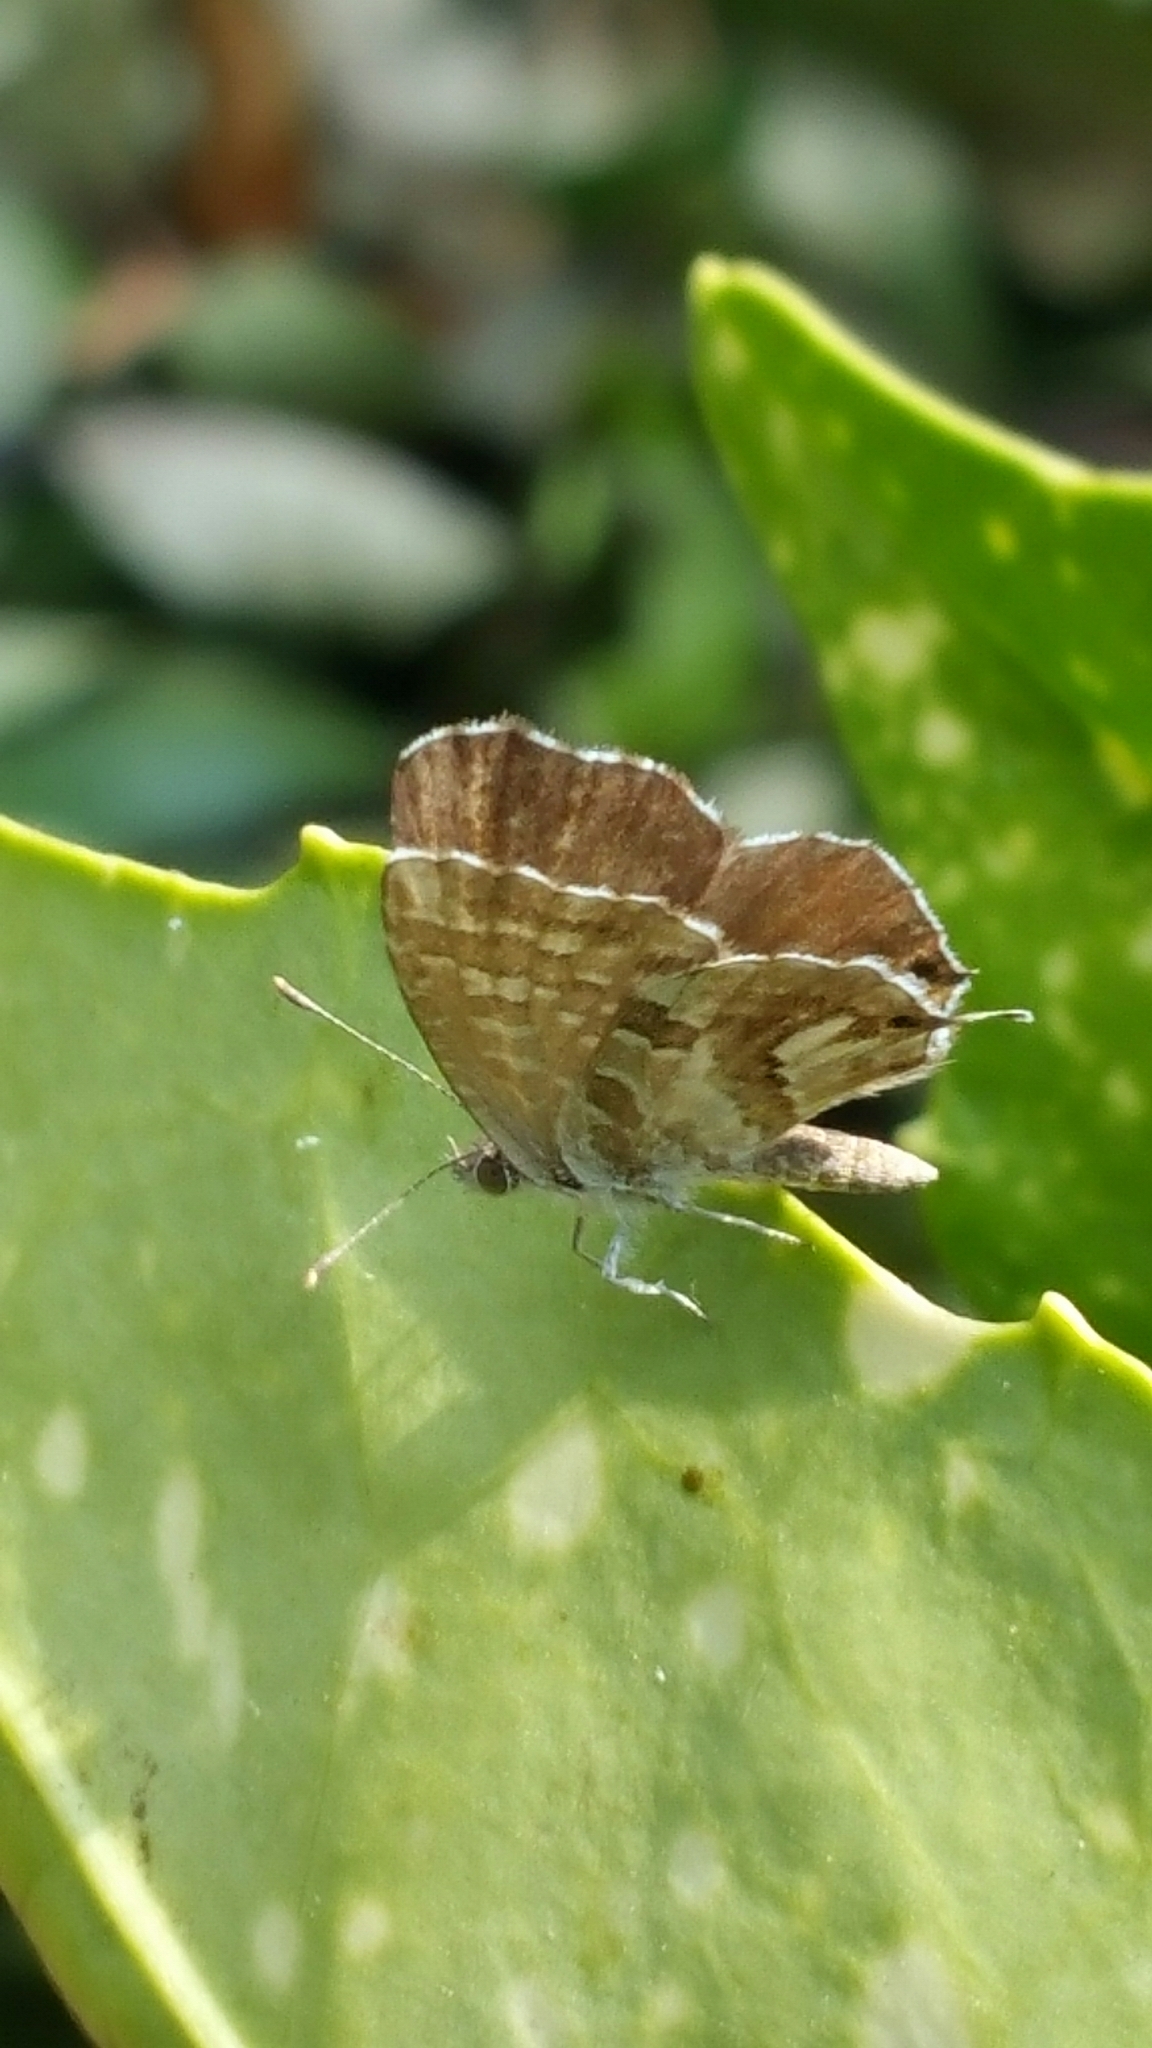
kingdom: Animalia
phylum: Arthropoda
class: Insecta
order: Lepidoptera
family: Lycaenidae
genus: Cacyreus
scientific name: Cacyreus marshalli
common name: Geranium bronze
